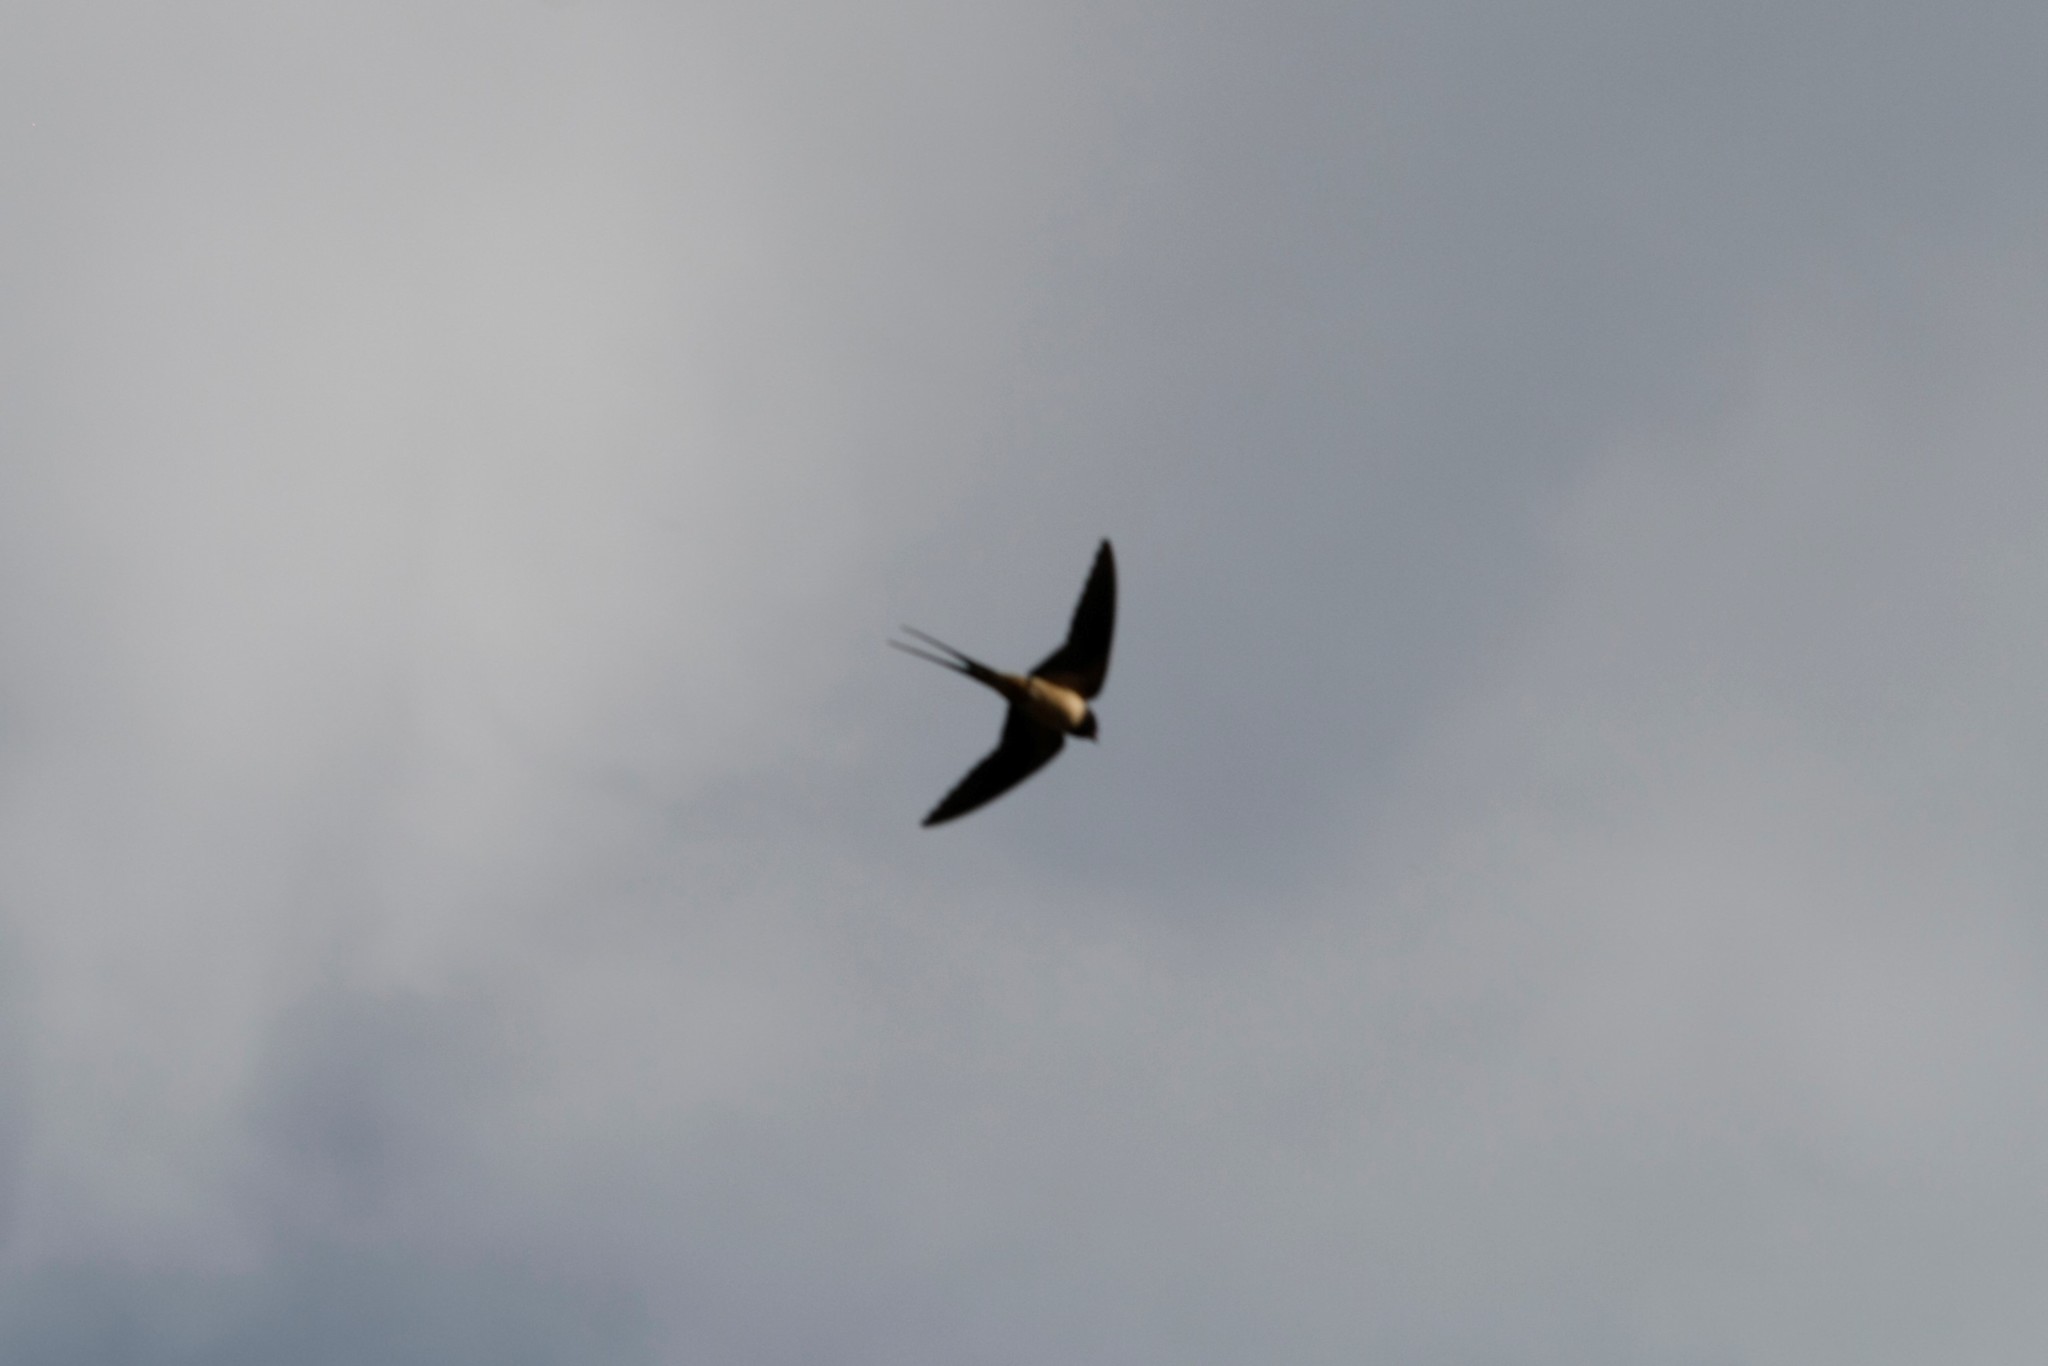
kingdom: Animalia
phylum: Chordata
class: Aves
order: Passeriformes
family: Hirundinidae
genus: Hirundo
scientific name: Hirundo rustica
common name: Barn swallow
